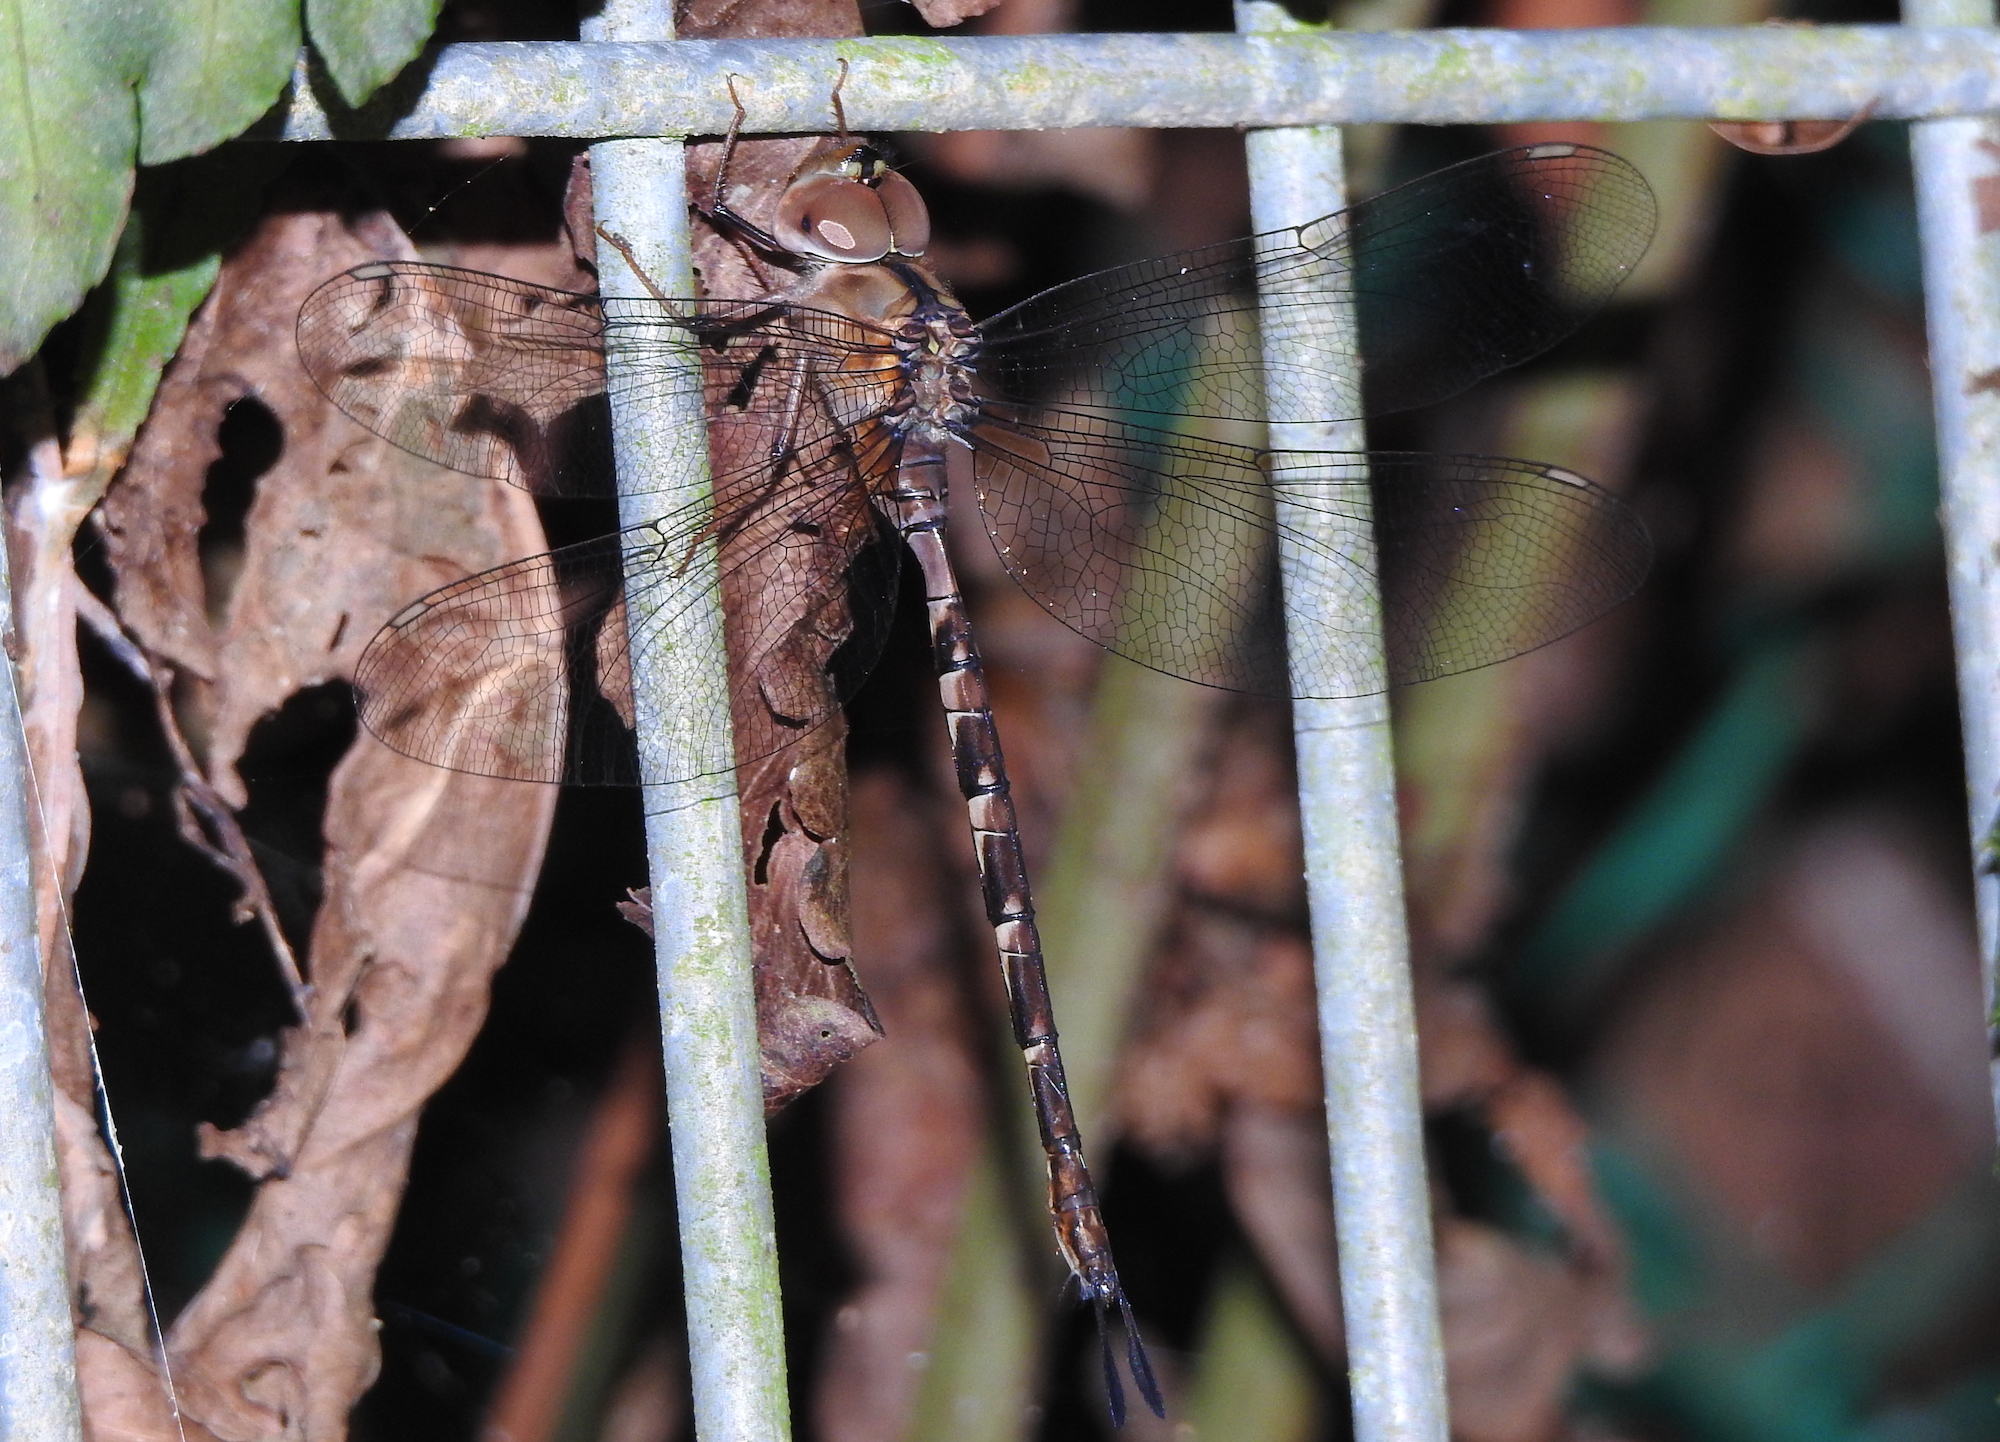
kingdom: Animalia
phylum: Arthropoda
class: Insecta
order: Odonata
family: Aeshnidae
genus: Gynacantha
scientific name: Gynacantha subinterrupta
